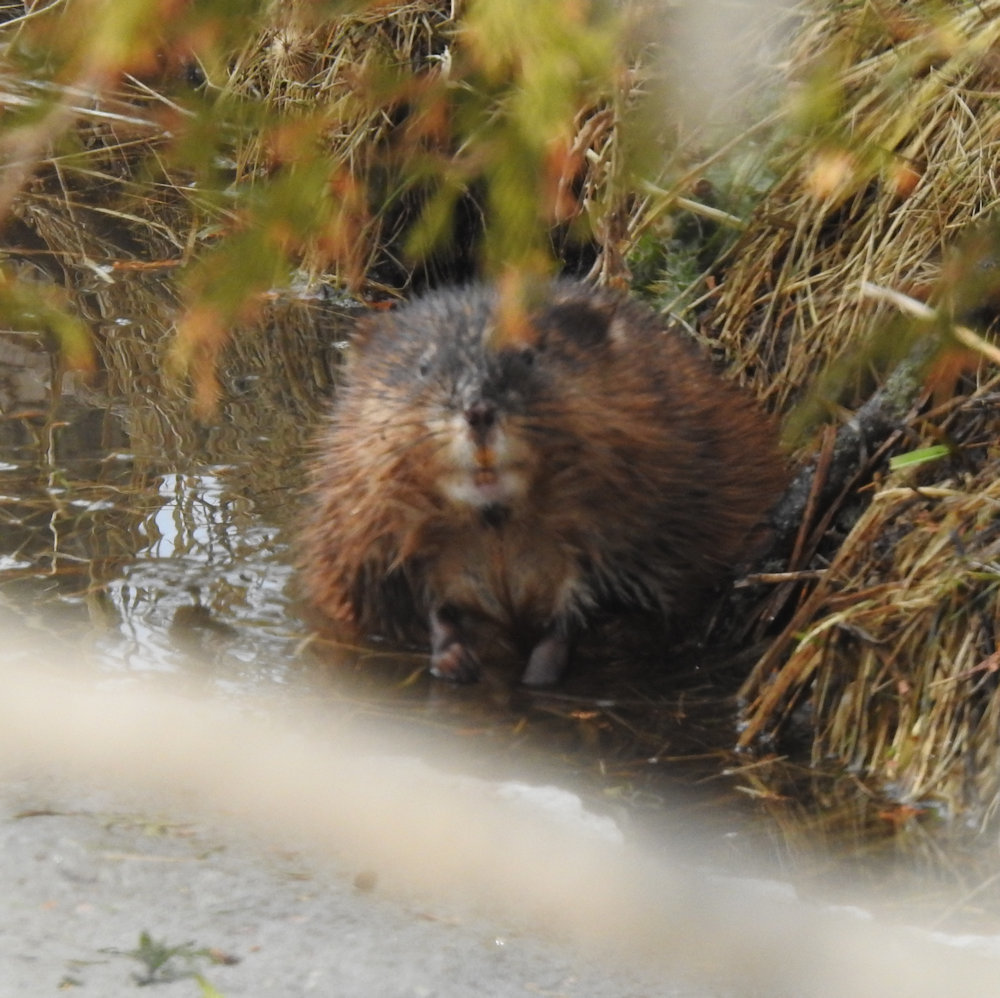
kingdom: Animalia
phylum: Chordata
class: Mammalia
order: Rodentia
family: Cricetidae
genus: Ondatra
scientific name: Ondatra zibethicus
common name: Muskrat
